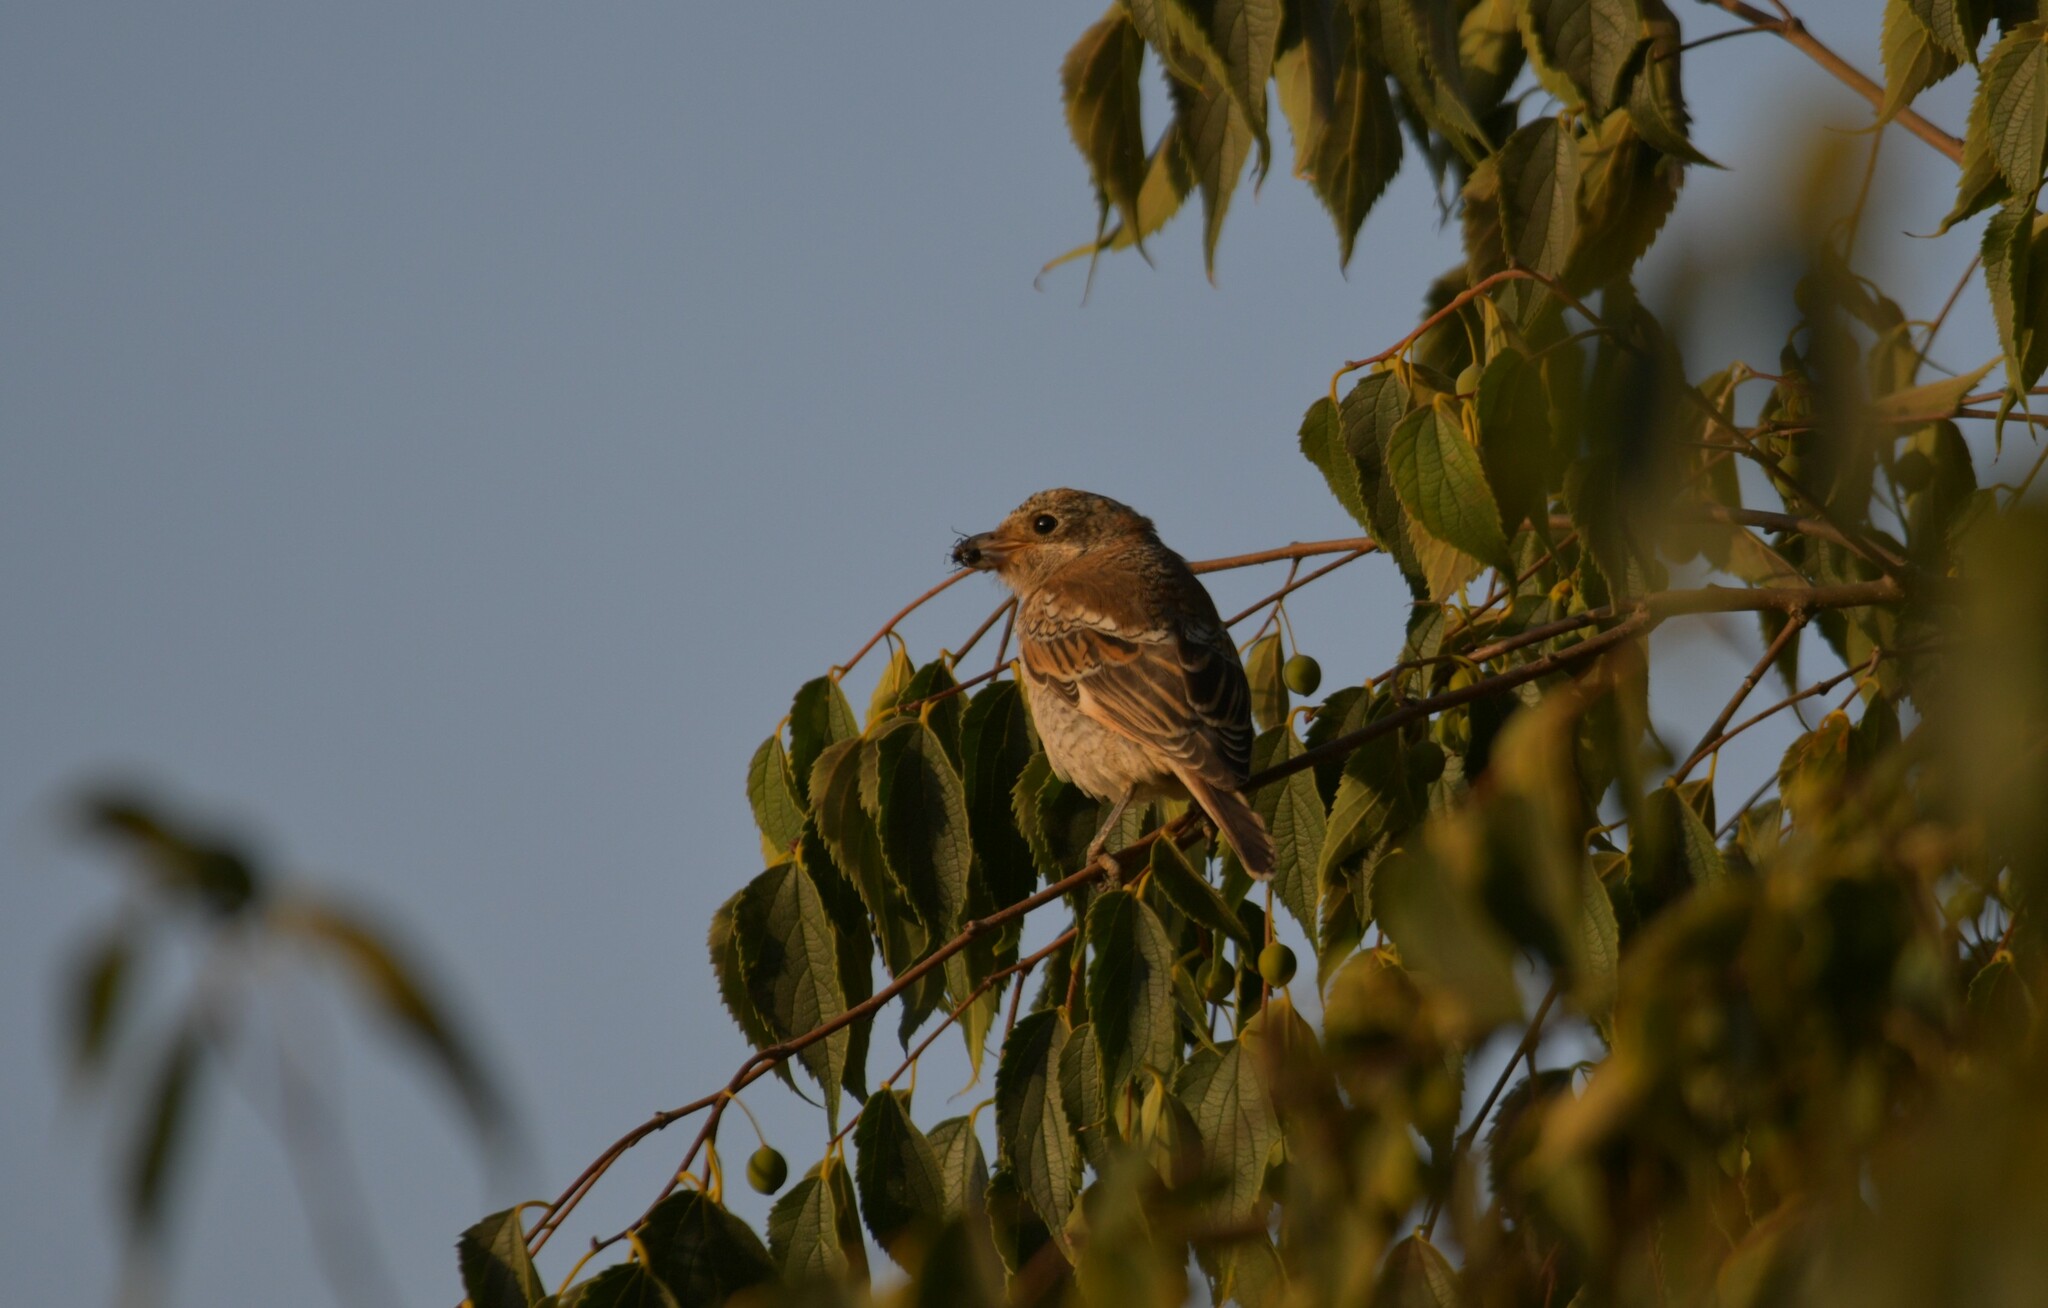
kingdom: Animalia
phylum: Chordata
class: Aves
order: Passeriformes
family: Laniidae
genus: Lanius
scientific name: Lanius senator
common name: Woodchat shrike
